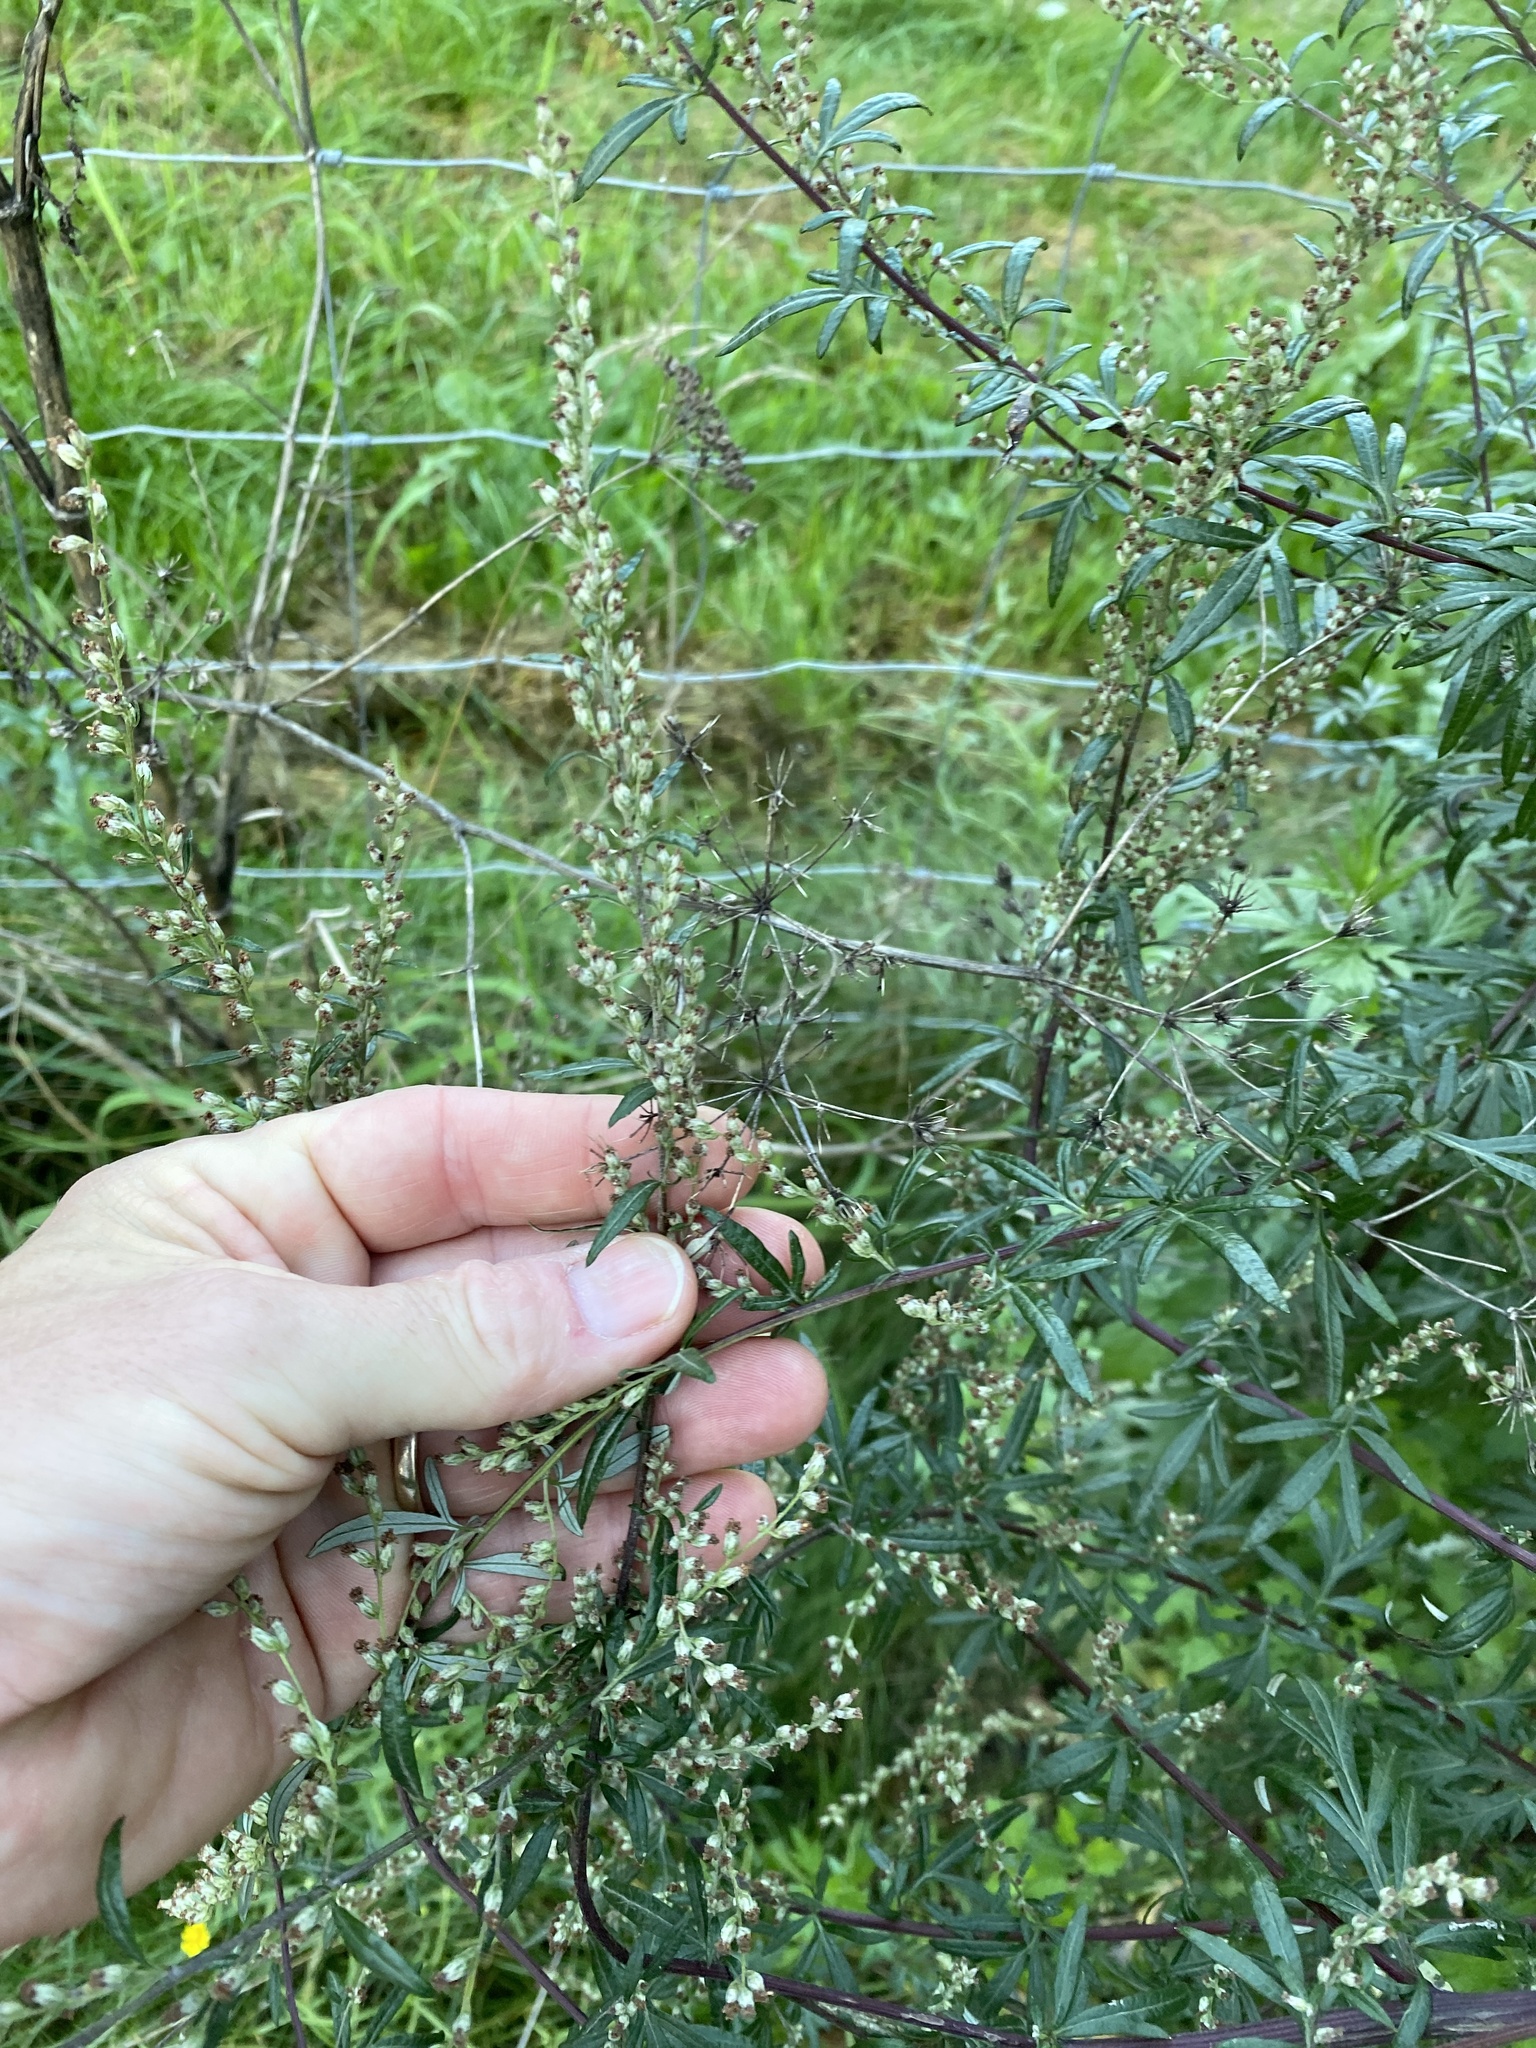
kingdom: Plantae
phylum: Tracheophyta
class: Magnoliopsida
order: Asterales
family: Asteraceae
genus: Artemisia
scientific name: Artemisia vulgaris
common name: Mugwort
